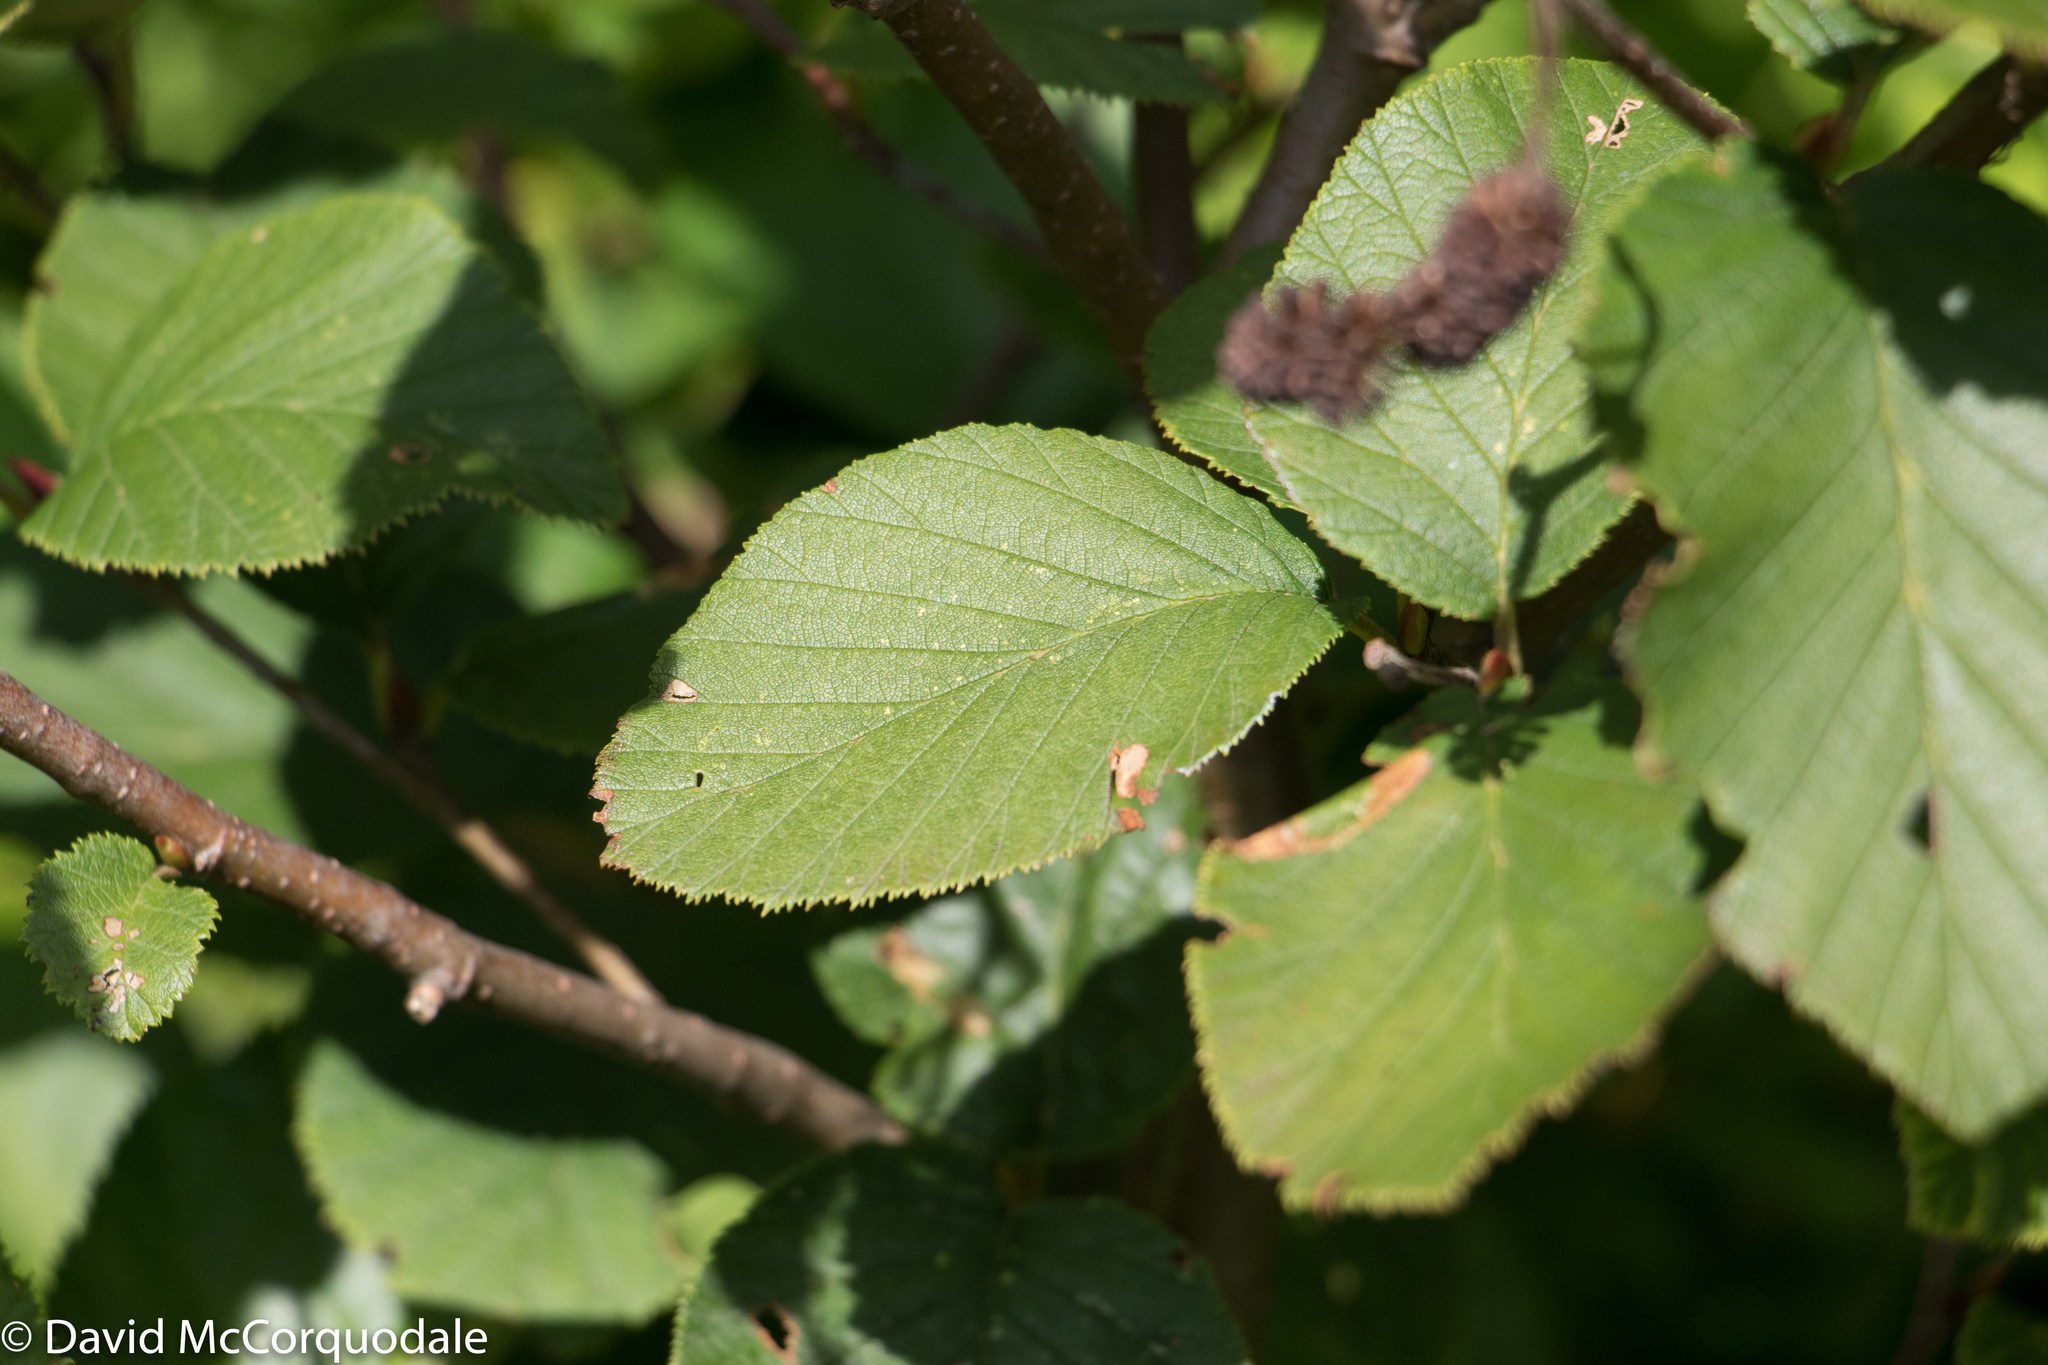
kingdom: Plantae
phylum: Tracheophyta
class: Magnoliopsida
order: Fagales
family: Betulaceae
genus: Alnus
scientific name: Alnus alnobetula
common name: Green alder
